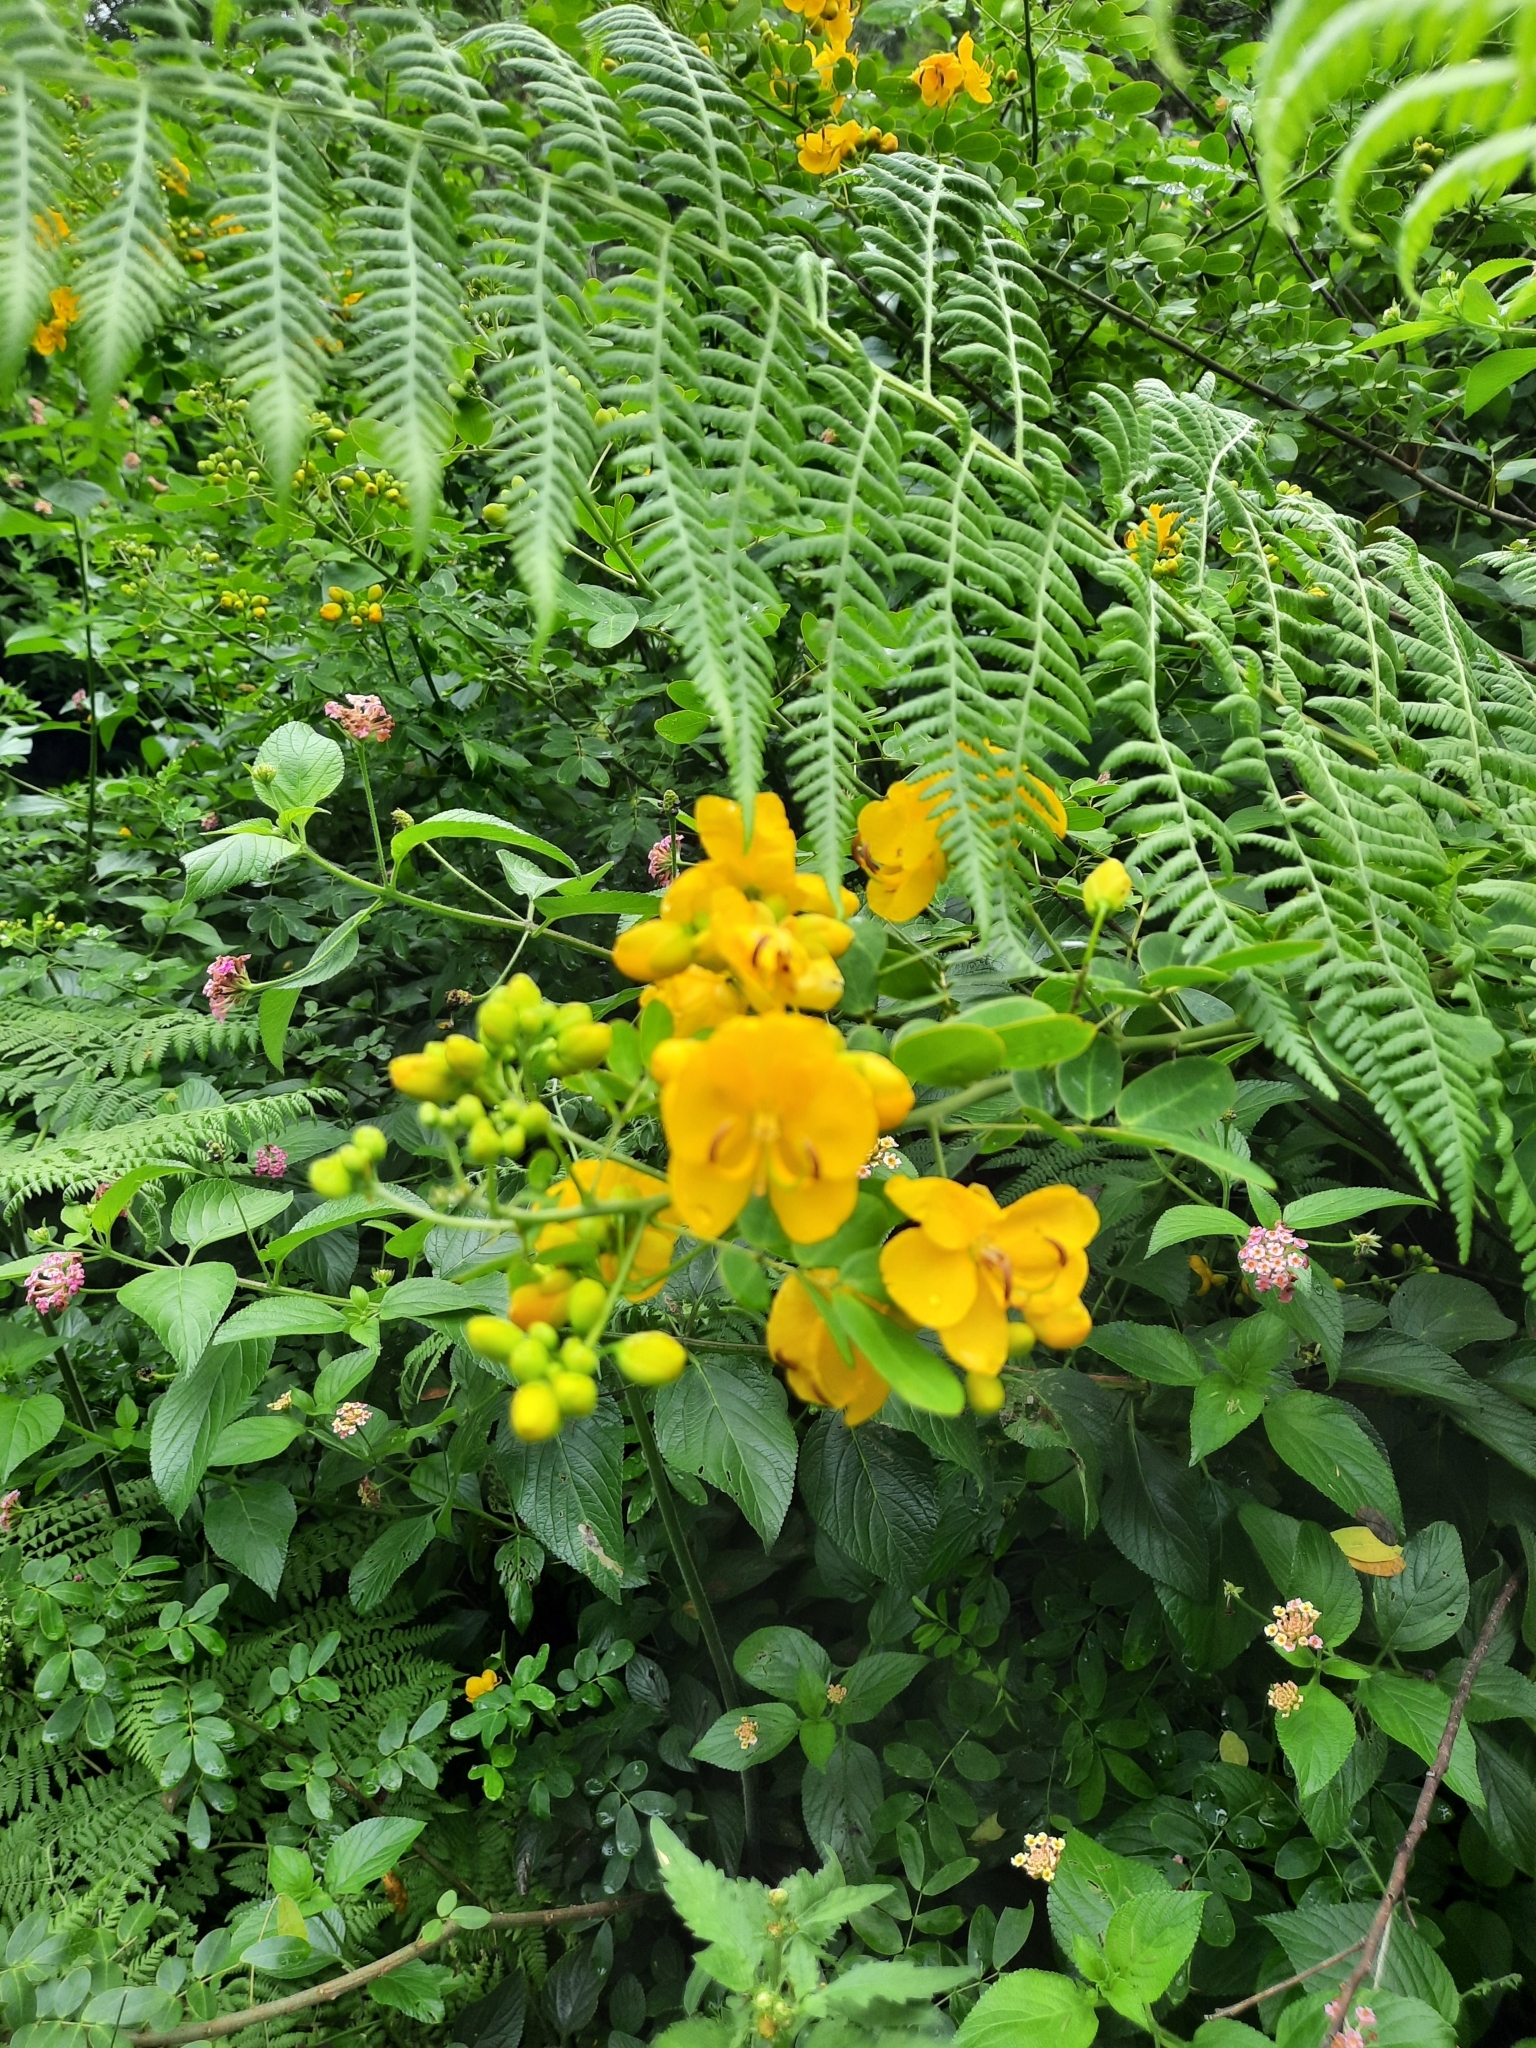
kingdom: Plantae
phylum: Tracheophyta
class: Magnoliopsida
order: Fabales
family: Fabaceae
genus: Senna
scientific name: Senna pendula
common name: Easter cassia
